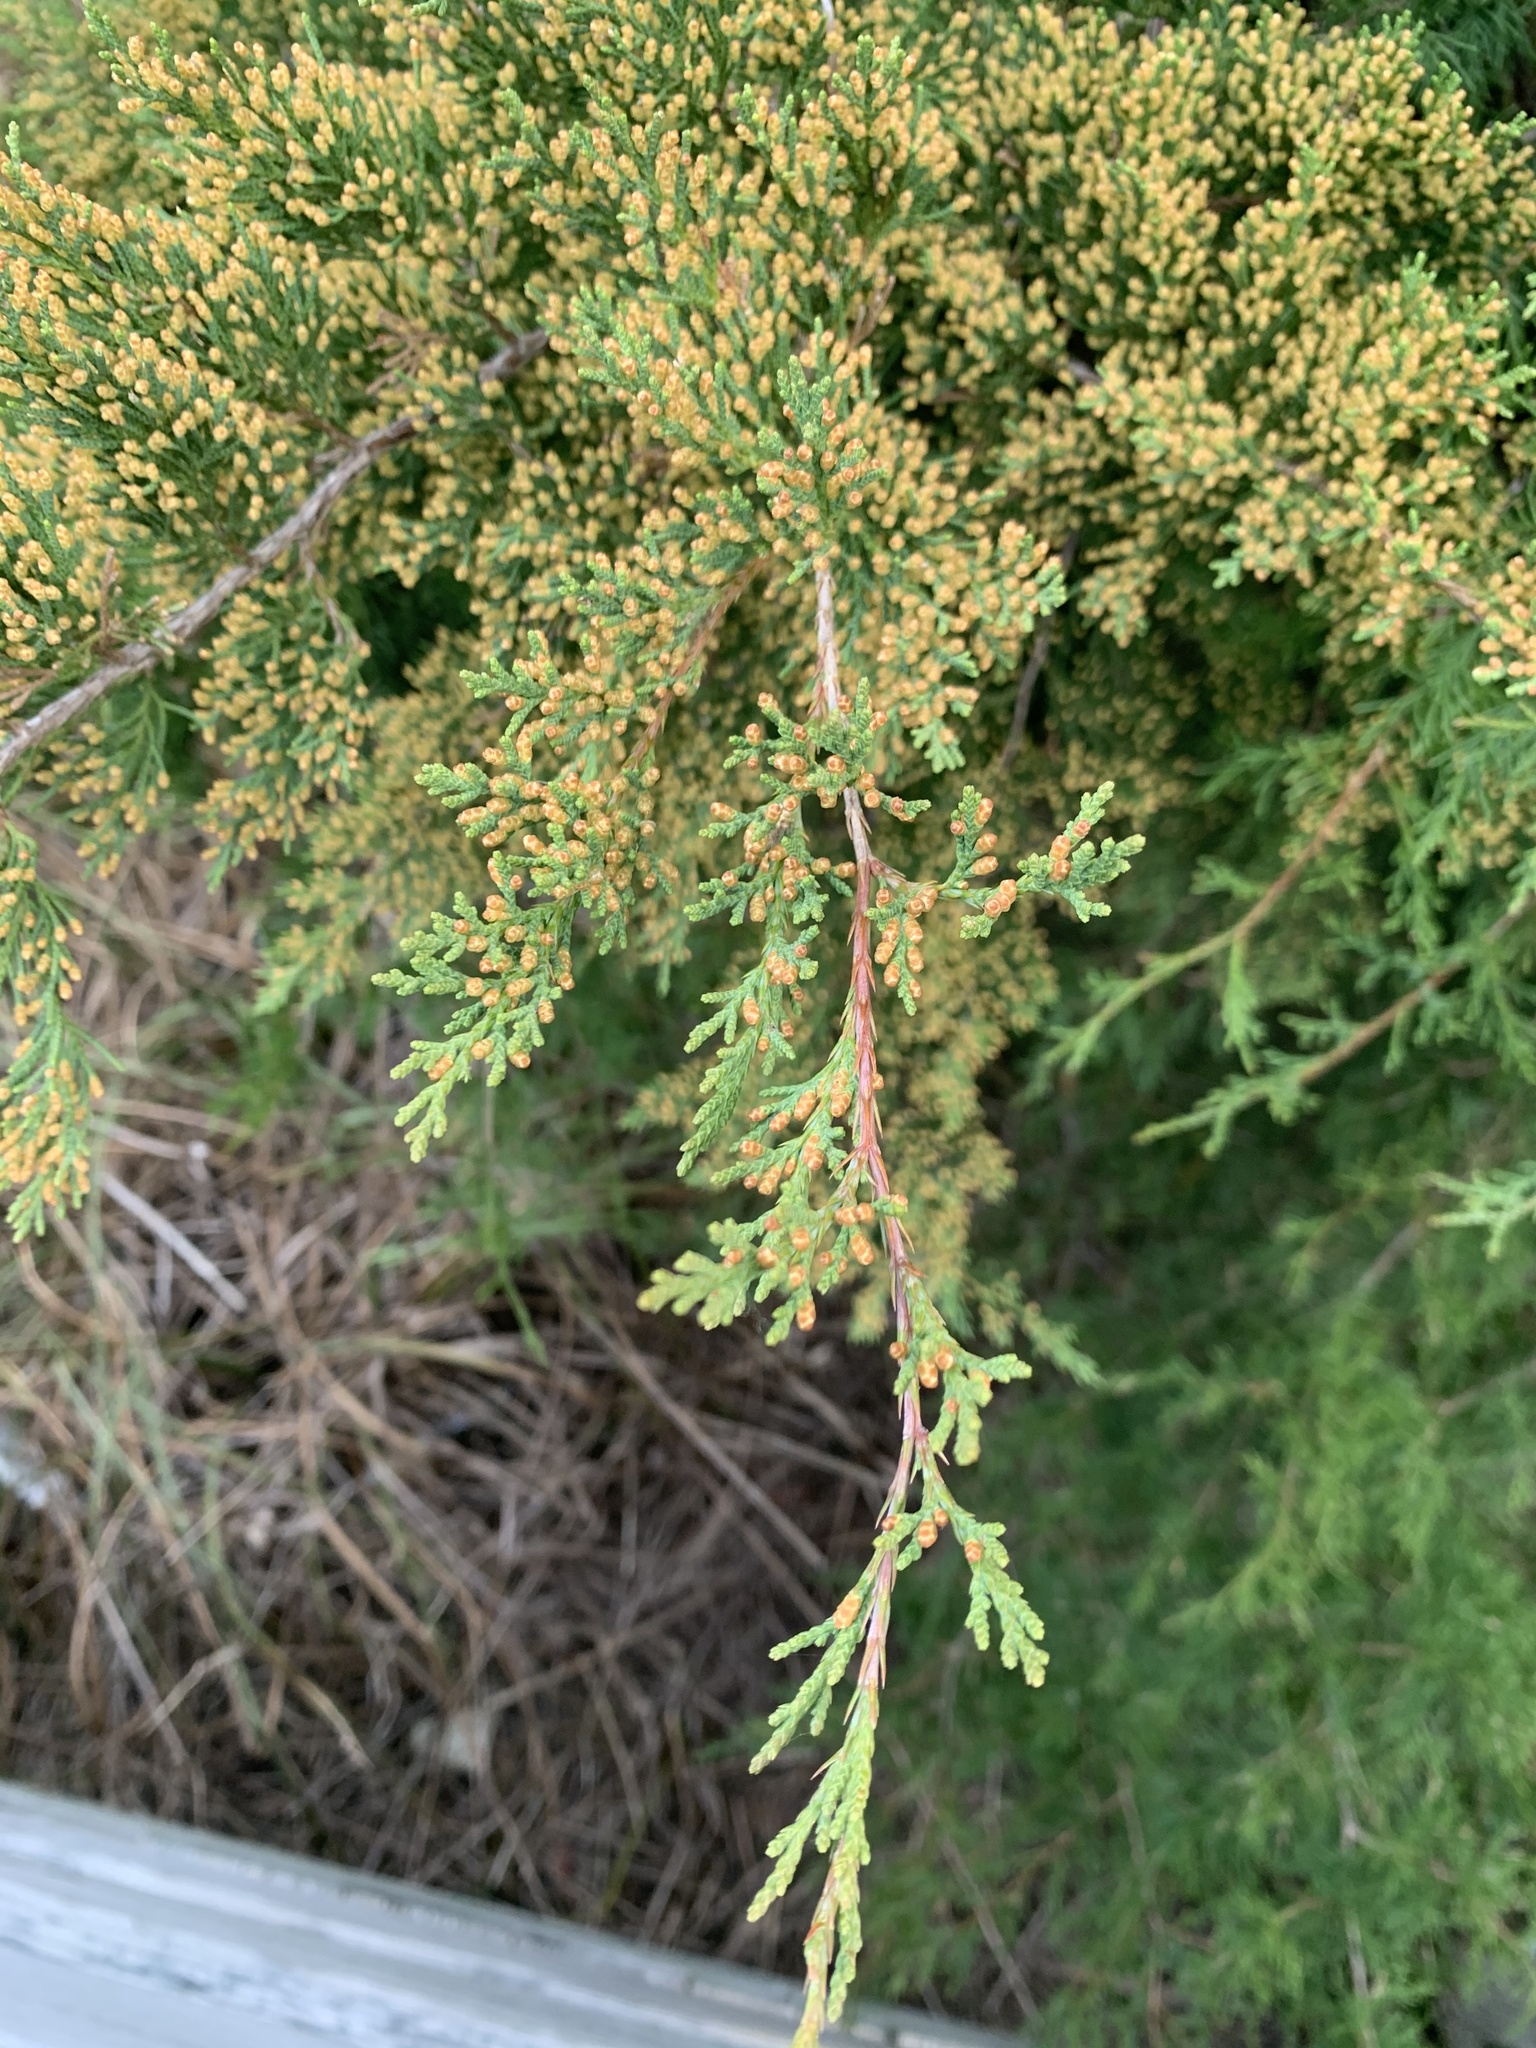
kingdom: Plantae
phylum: Tracheophyta
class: Pinopsida
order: Pinales
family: Cupressaceae
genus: Juniperus
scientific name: Juniperus virginiana
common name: Red juniper
